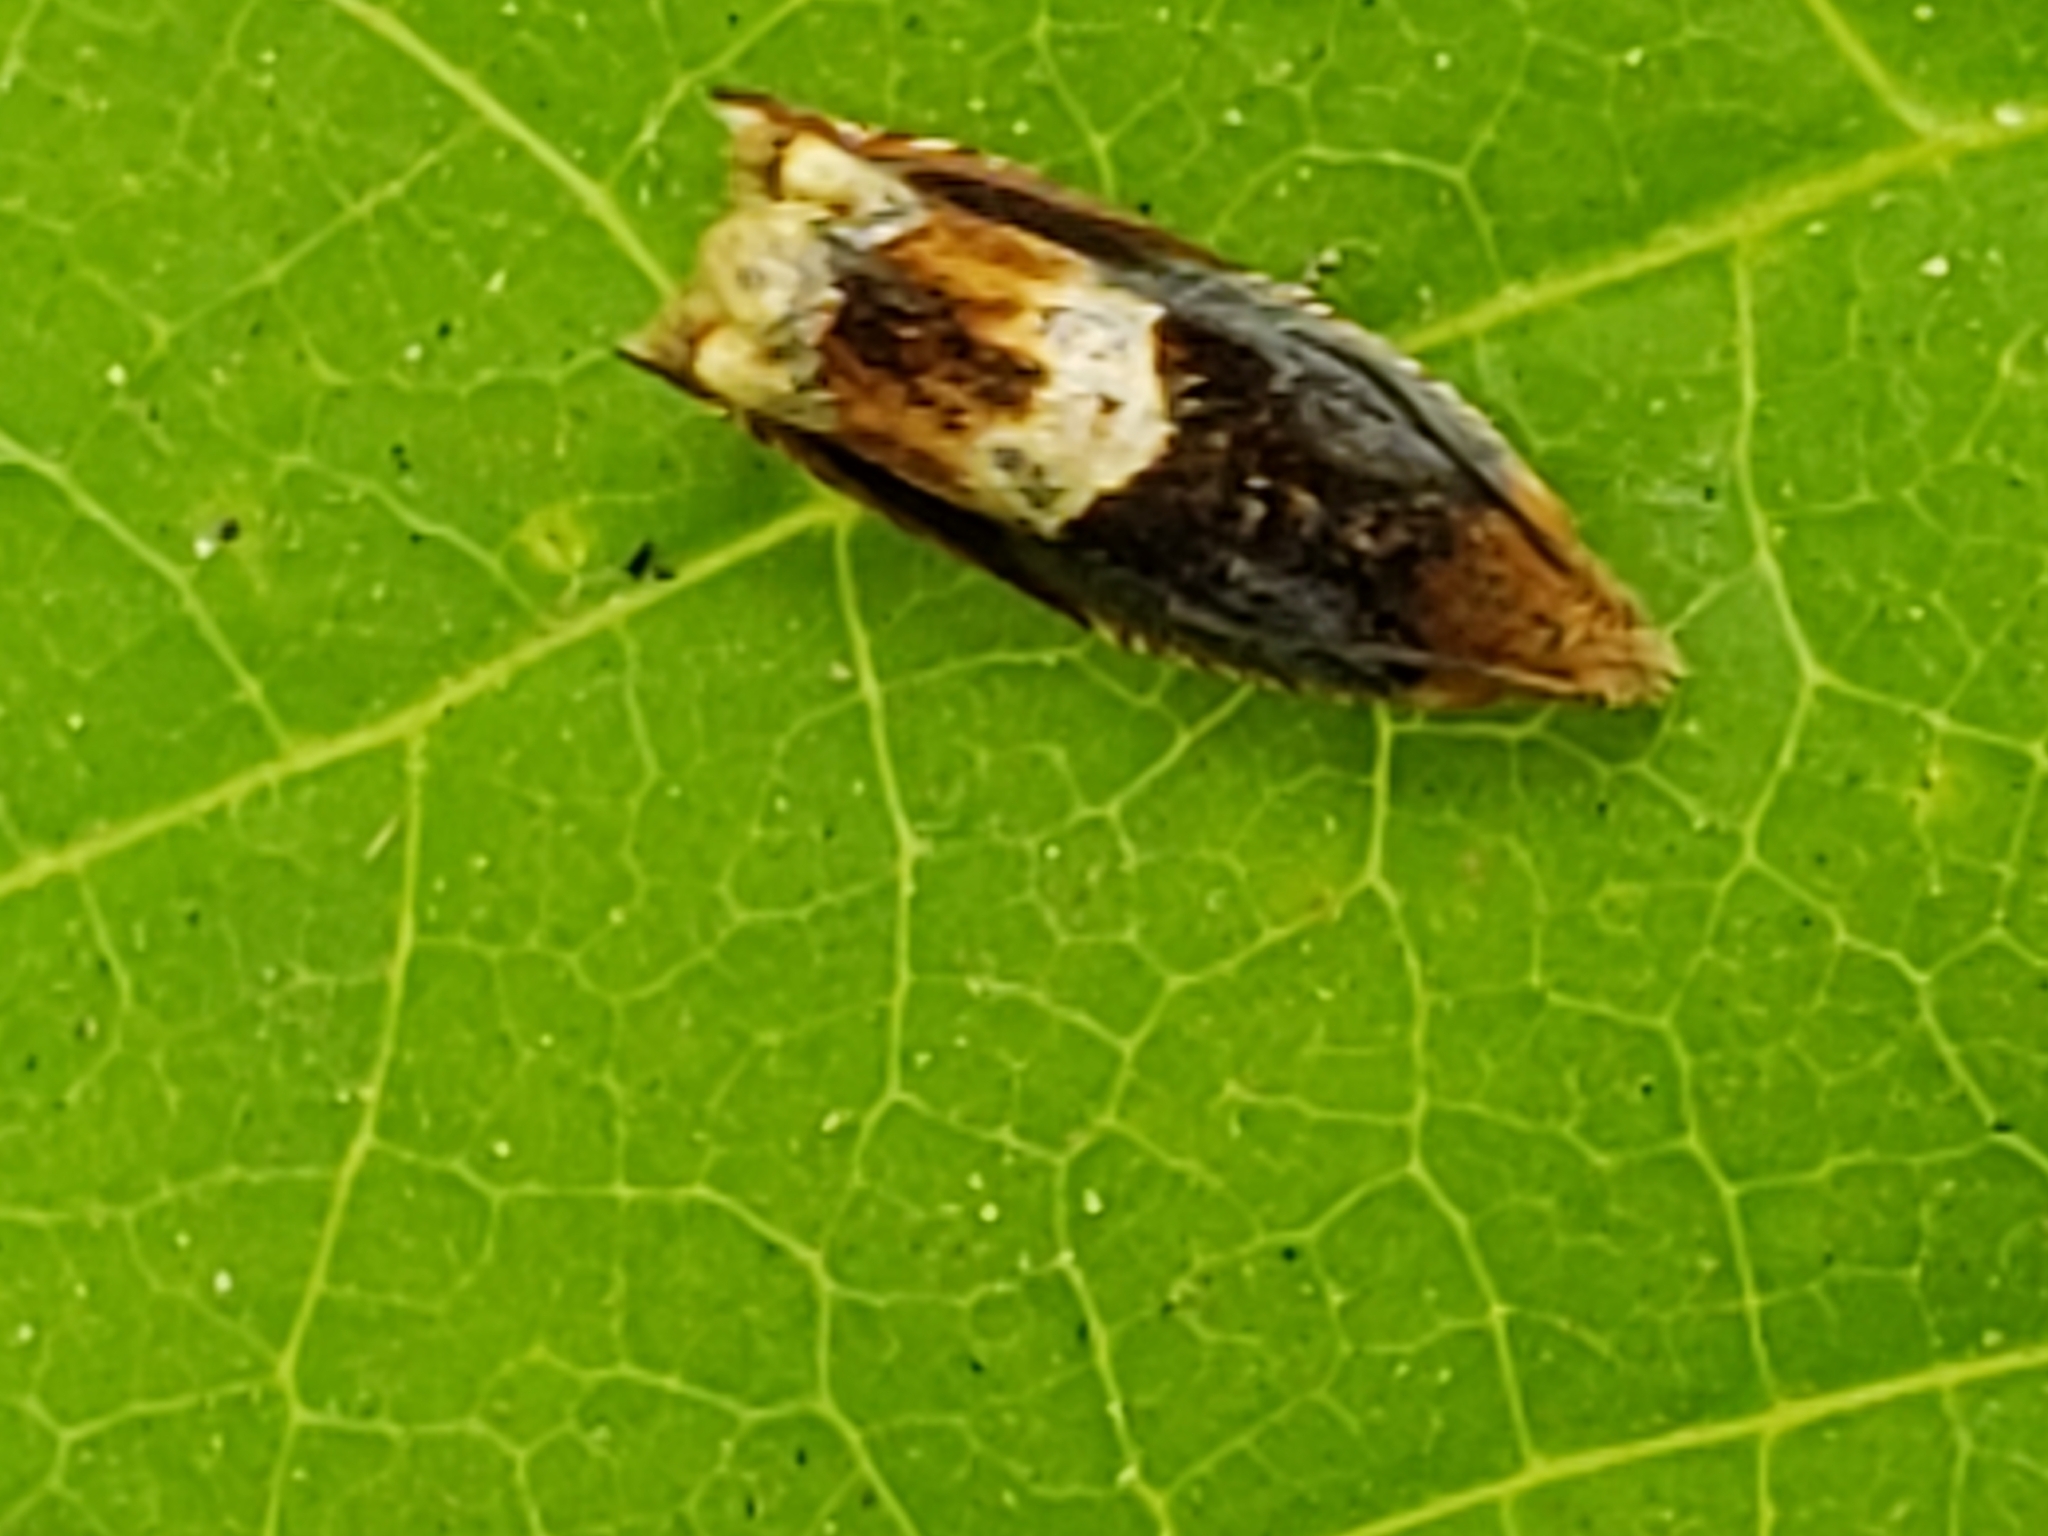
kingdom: Animalia
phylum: Arthropoda
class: Insecta
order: Lepidoptera
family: Tortricidae
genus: Ancylis
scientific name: Ancylis muricana
